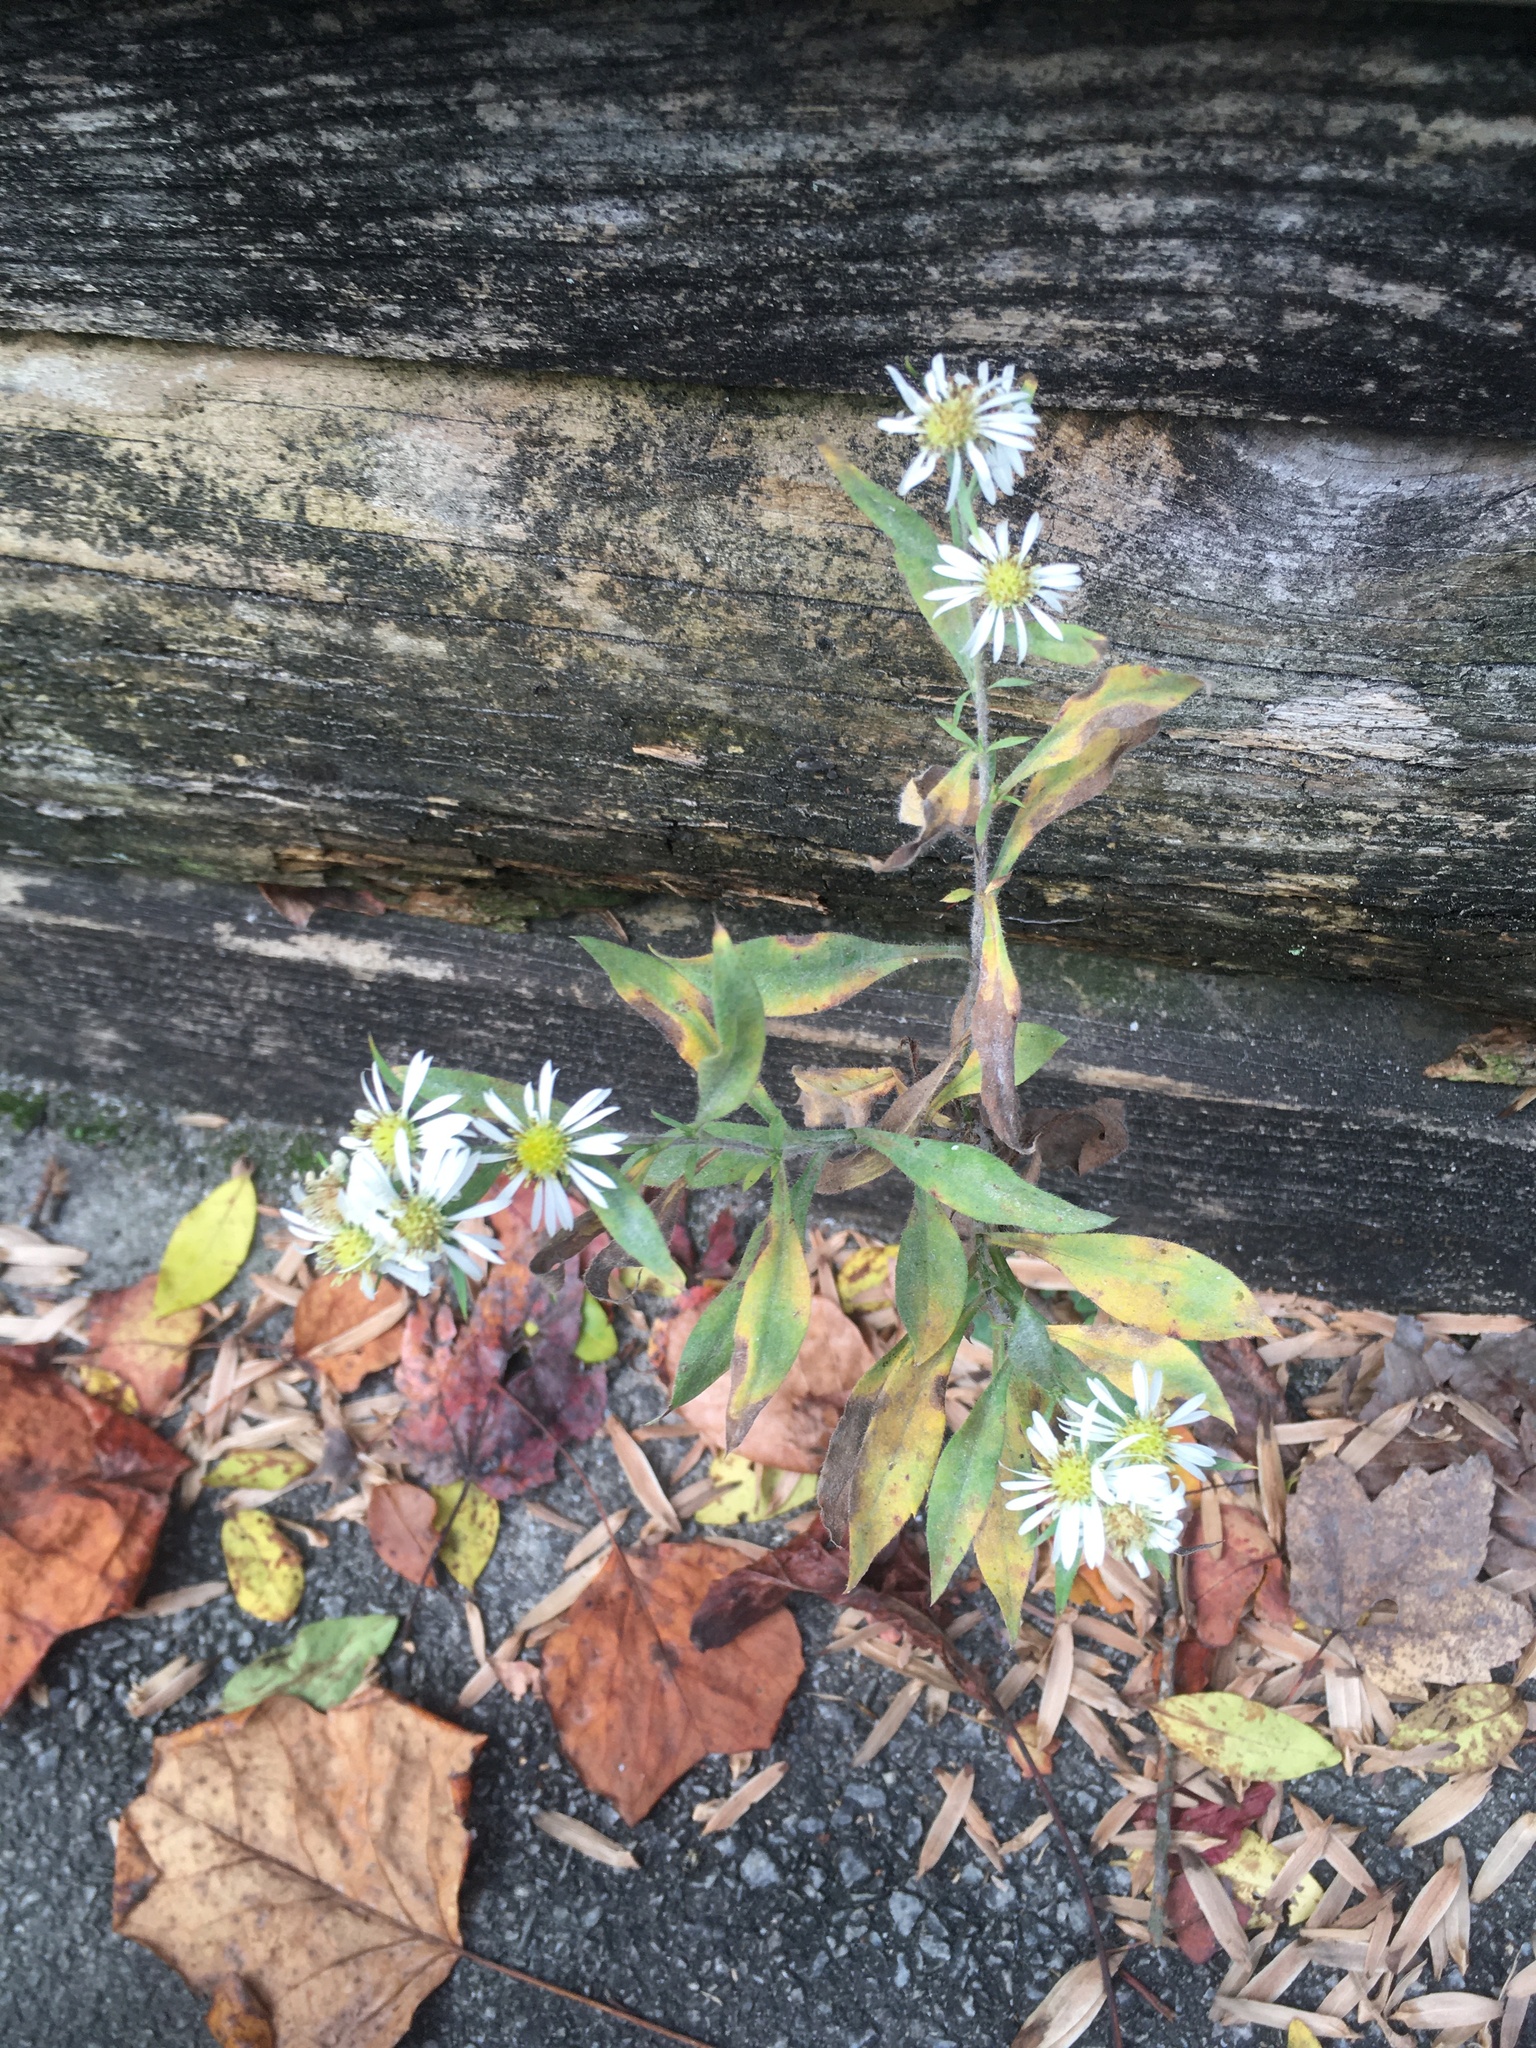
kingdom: Plantae
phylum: Tracheophyta
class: Magnoliopsida
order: Asterales
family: Asteraceae
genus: Symphyotrichum
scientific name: Symphyotrichum pilosum
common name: Awl aster
